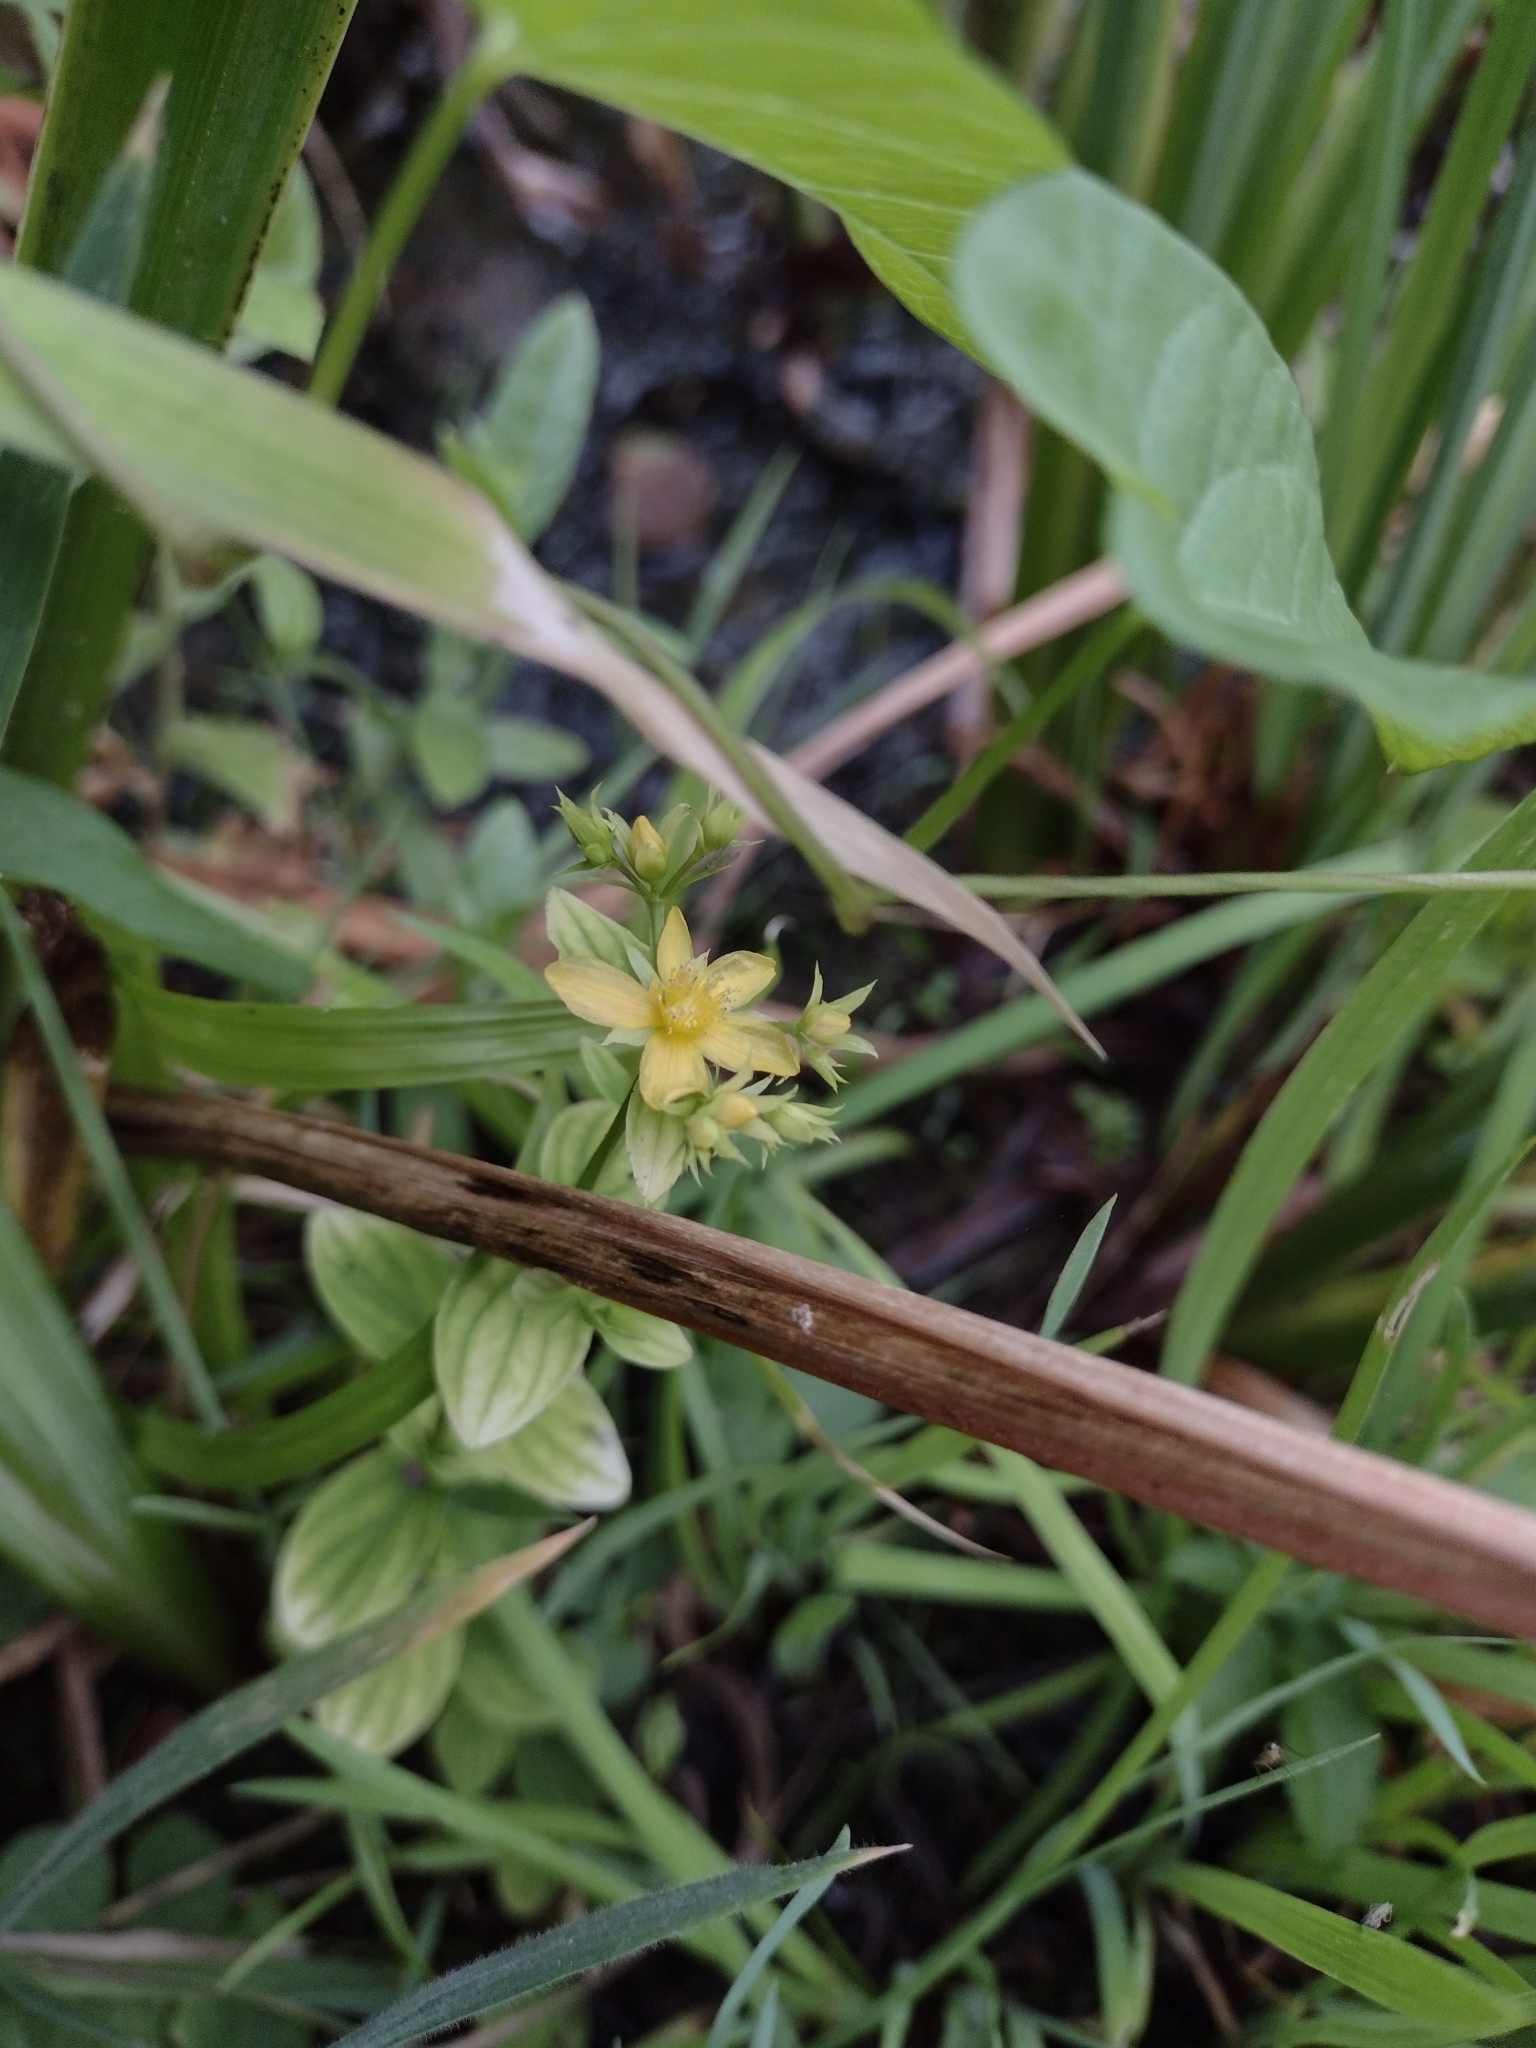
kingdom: Plantae
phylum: Tracheophyta
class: Magnoliopsida
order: Malpighiales
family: Hypericaceae
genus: Hypericum
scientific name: Hypericum tetrapterum
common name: Square-stalked st. john's-wort
